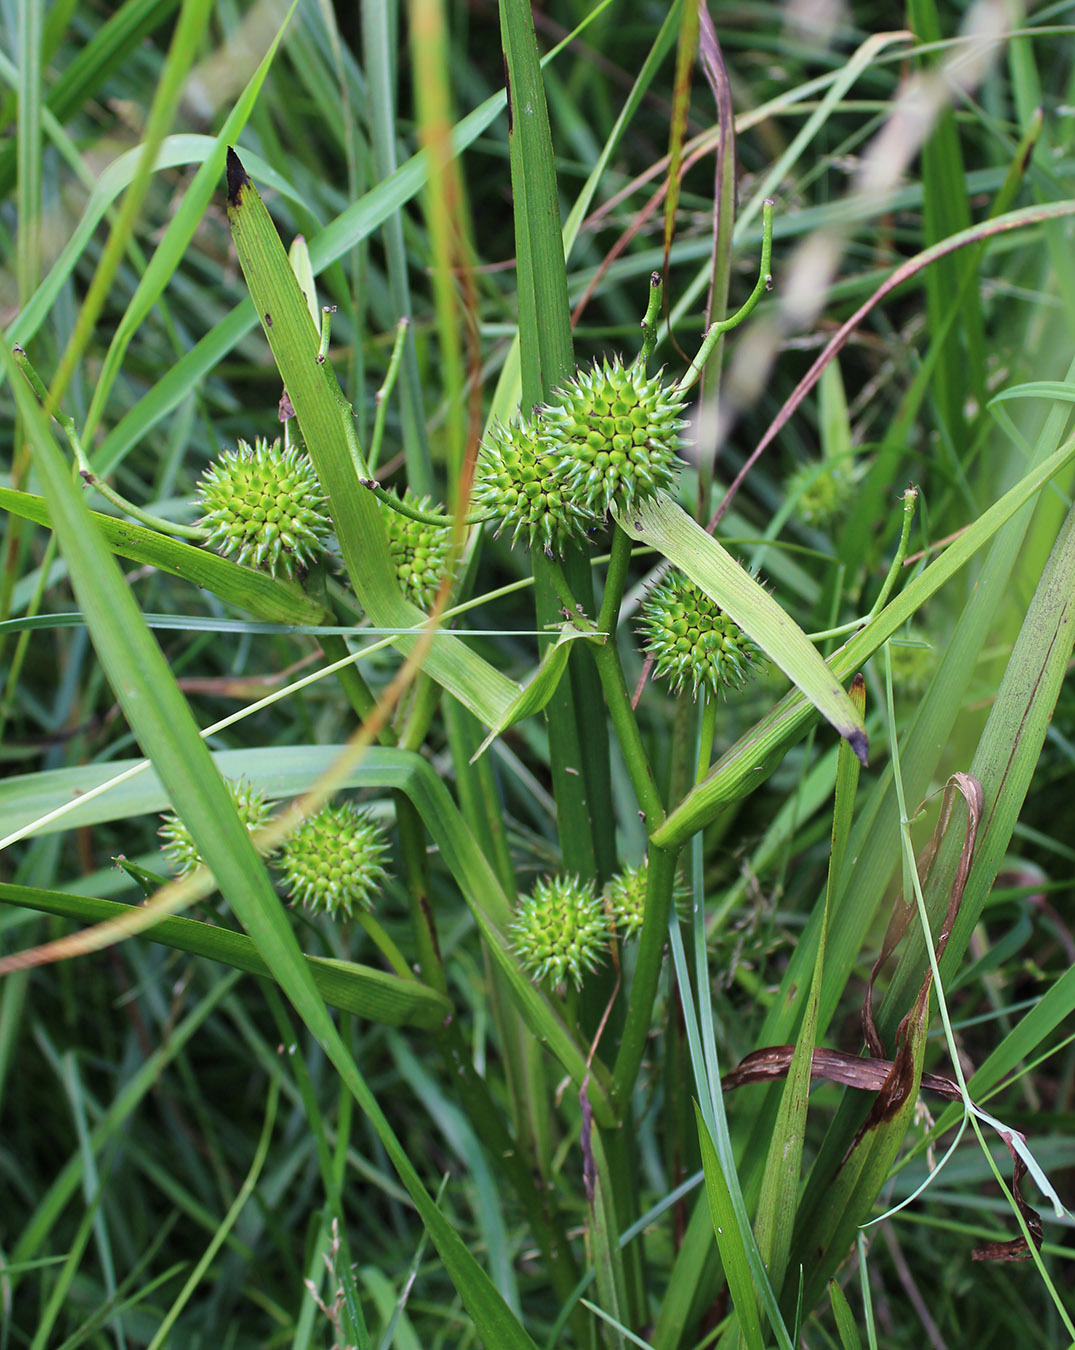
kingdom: Plantae
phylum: Tracheophyta
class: Liliopsida
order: Poales
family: Typhaceae
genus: Sparganium
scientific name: Sparganium erectum
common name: Branched bur-reed
